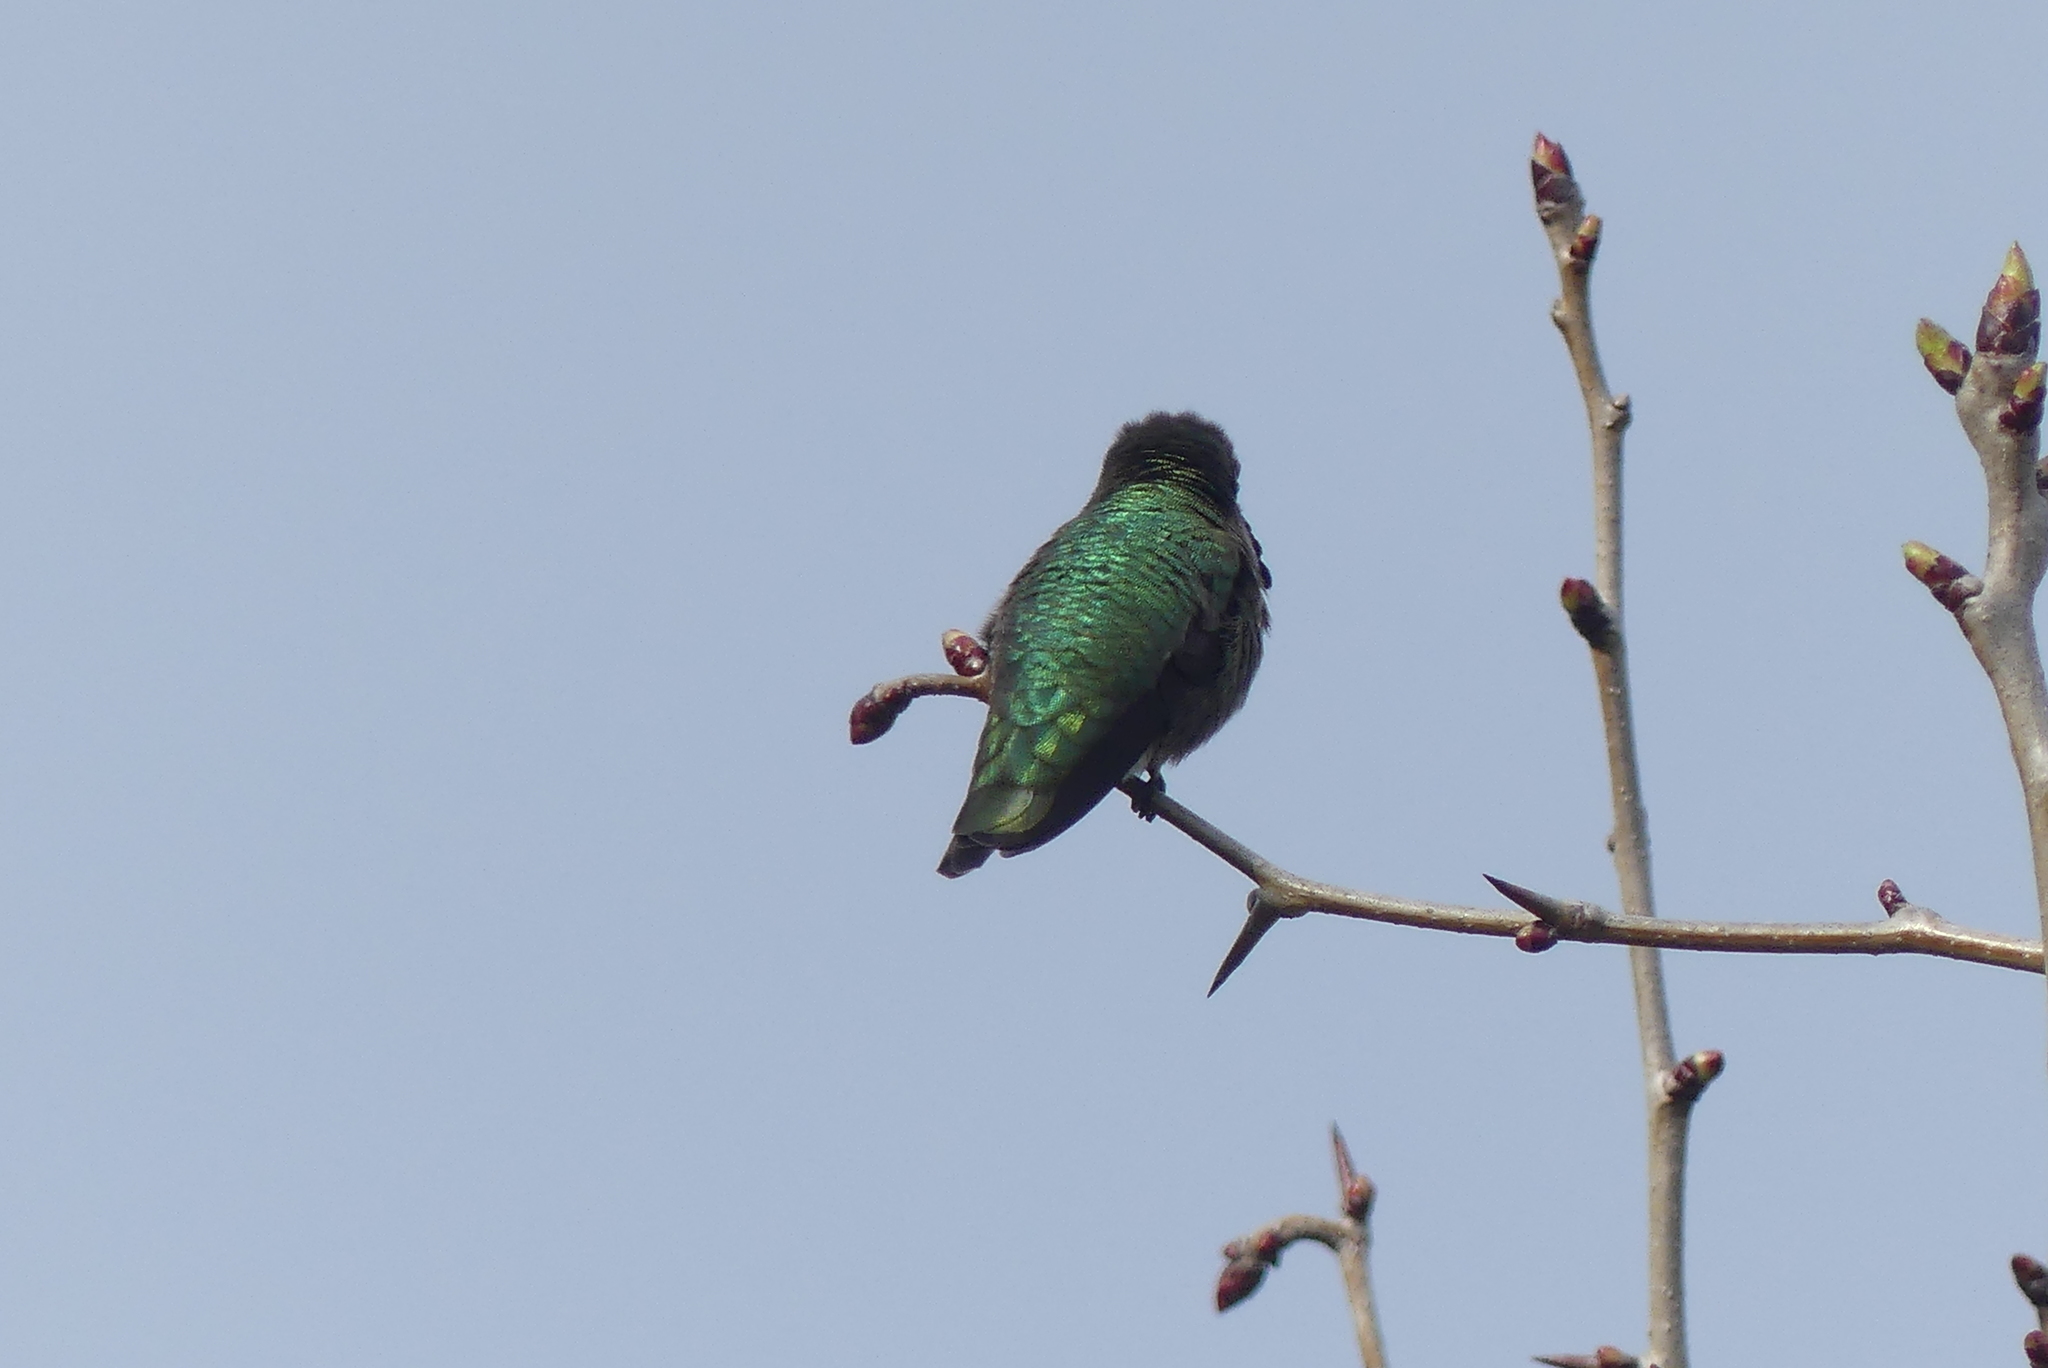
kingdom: Animalia
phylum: Chordata
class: Aves
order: Apodiformes
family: Trochilidae
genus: Calypte
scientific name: Calypte anna
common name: Anna's hummingbird
